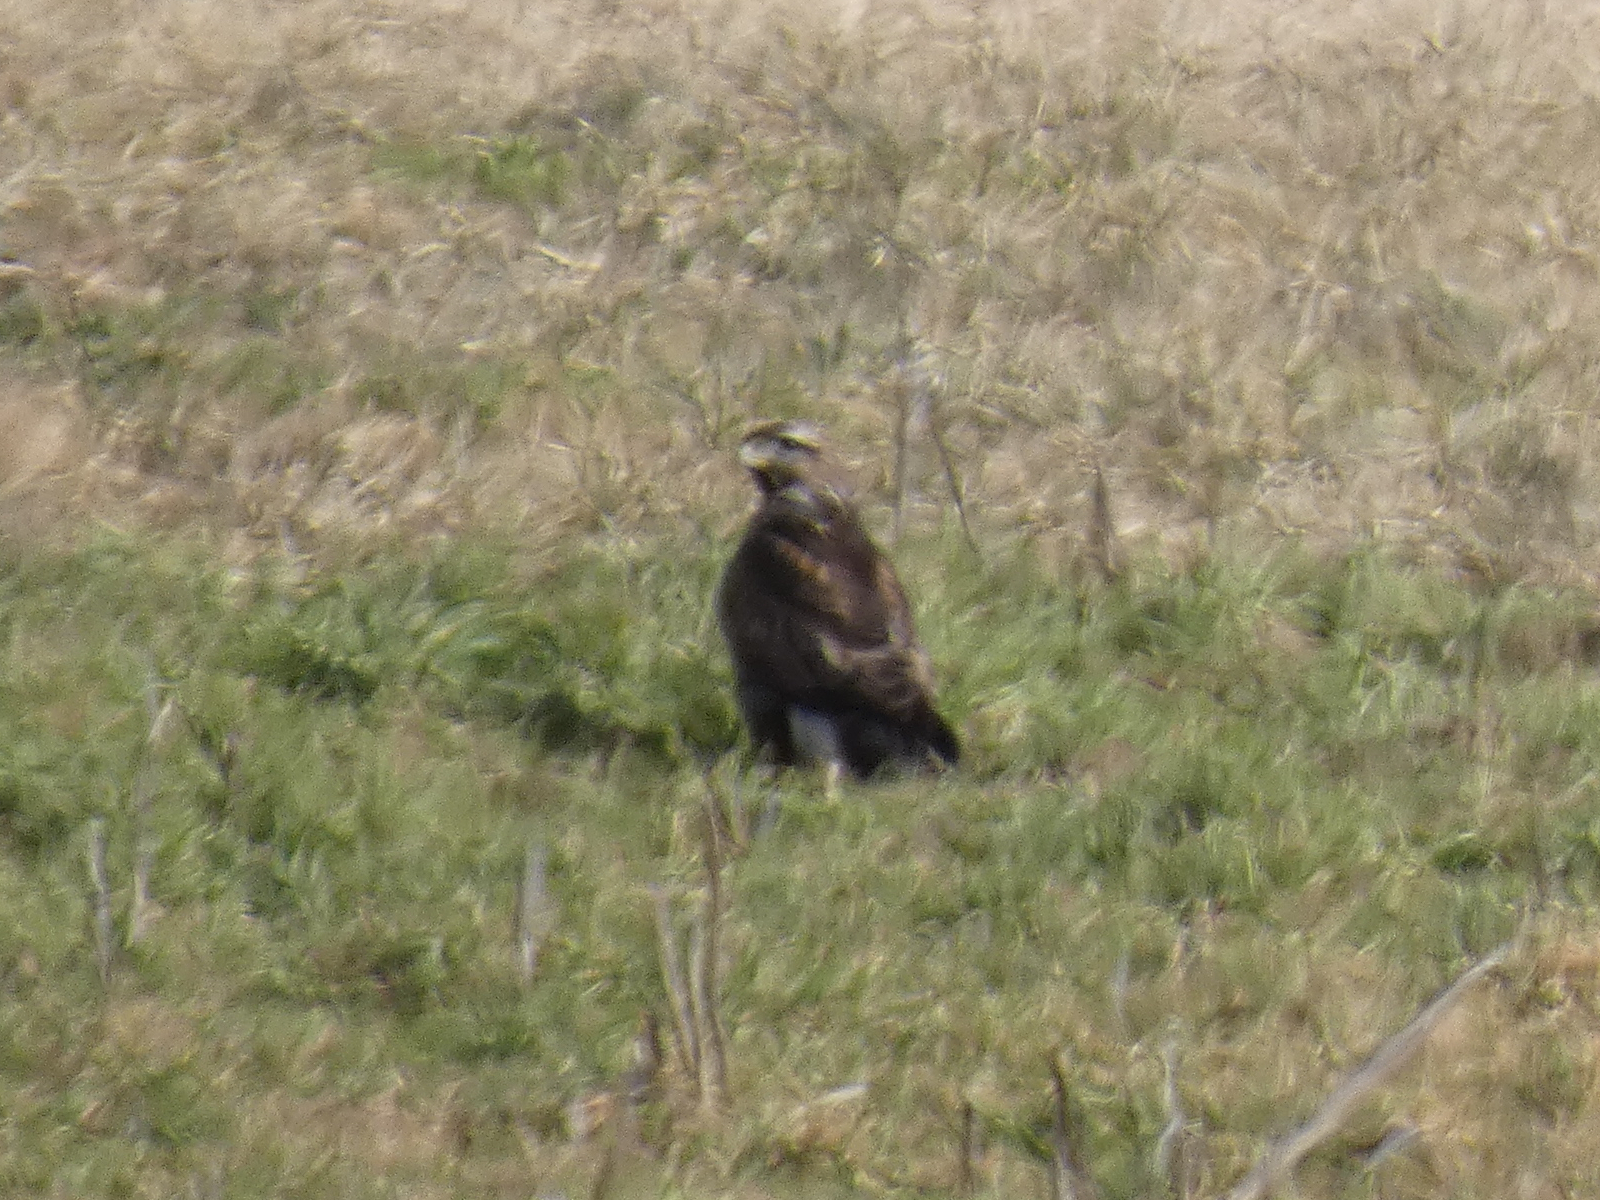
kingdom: Animalia
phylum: Chordata
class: Aves
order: Accipitriformes
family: Accipitridae
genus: Buteo
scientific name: Buteo buteo
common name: Common buzzard
